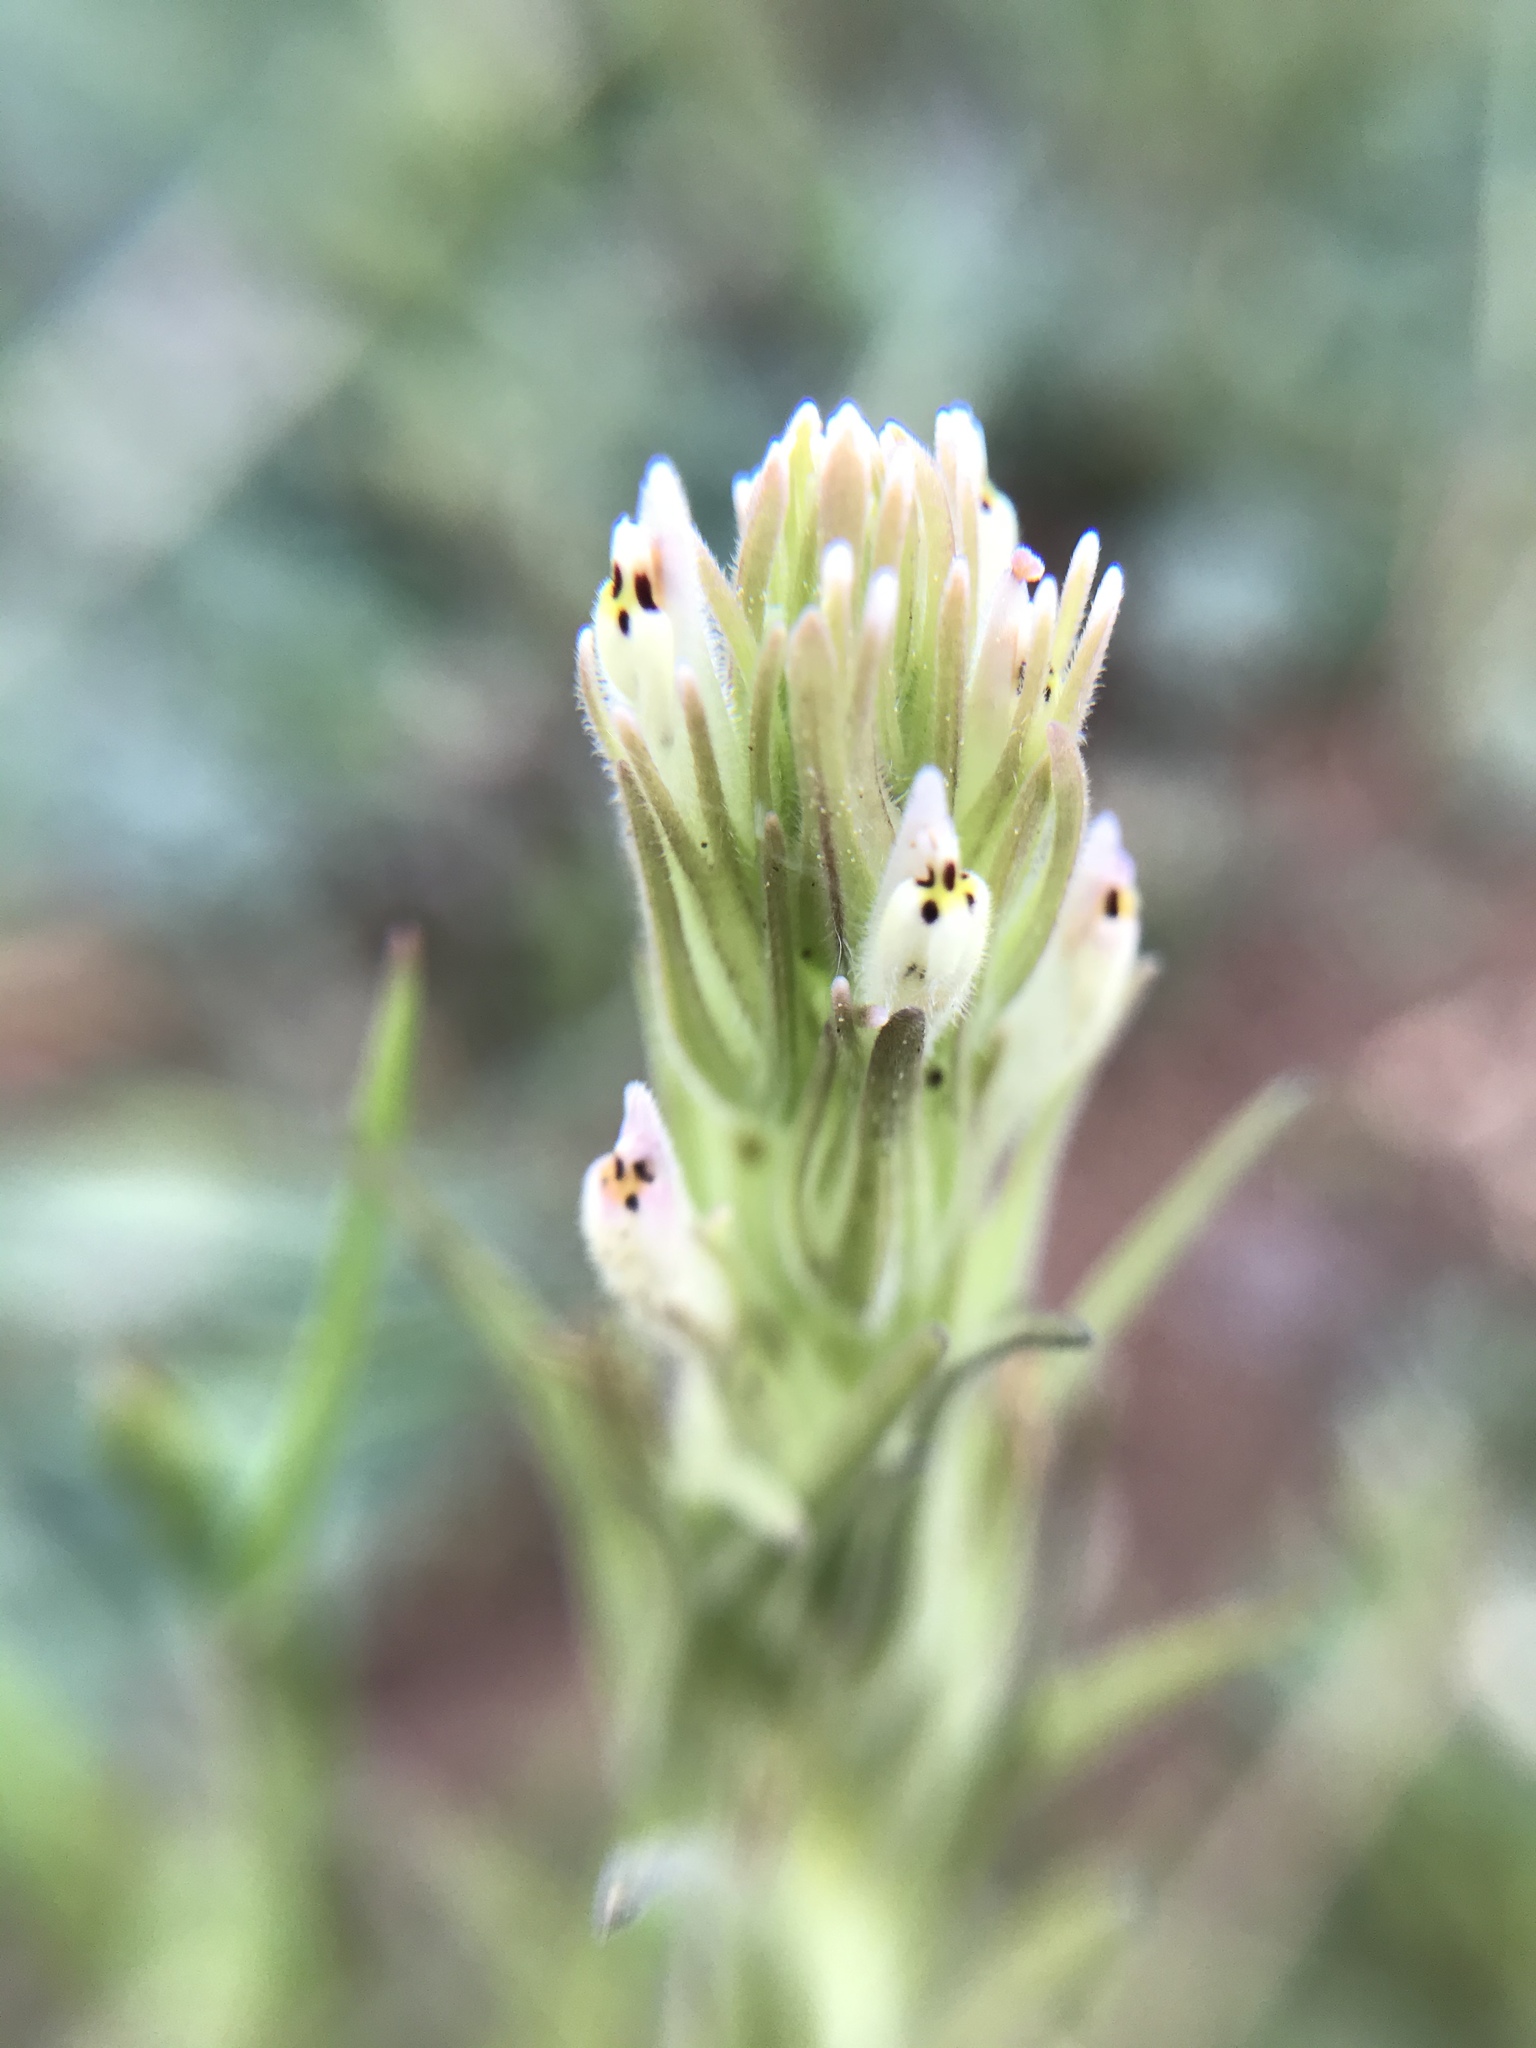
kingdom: Plantae
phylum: Tracheophyta
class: Magnoliopsida
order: Lamiales
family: Orobanchaceae
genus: Castilleja
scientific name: Castilleja attenuata
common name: Valley tassels
